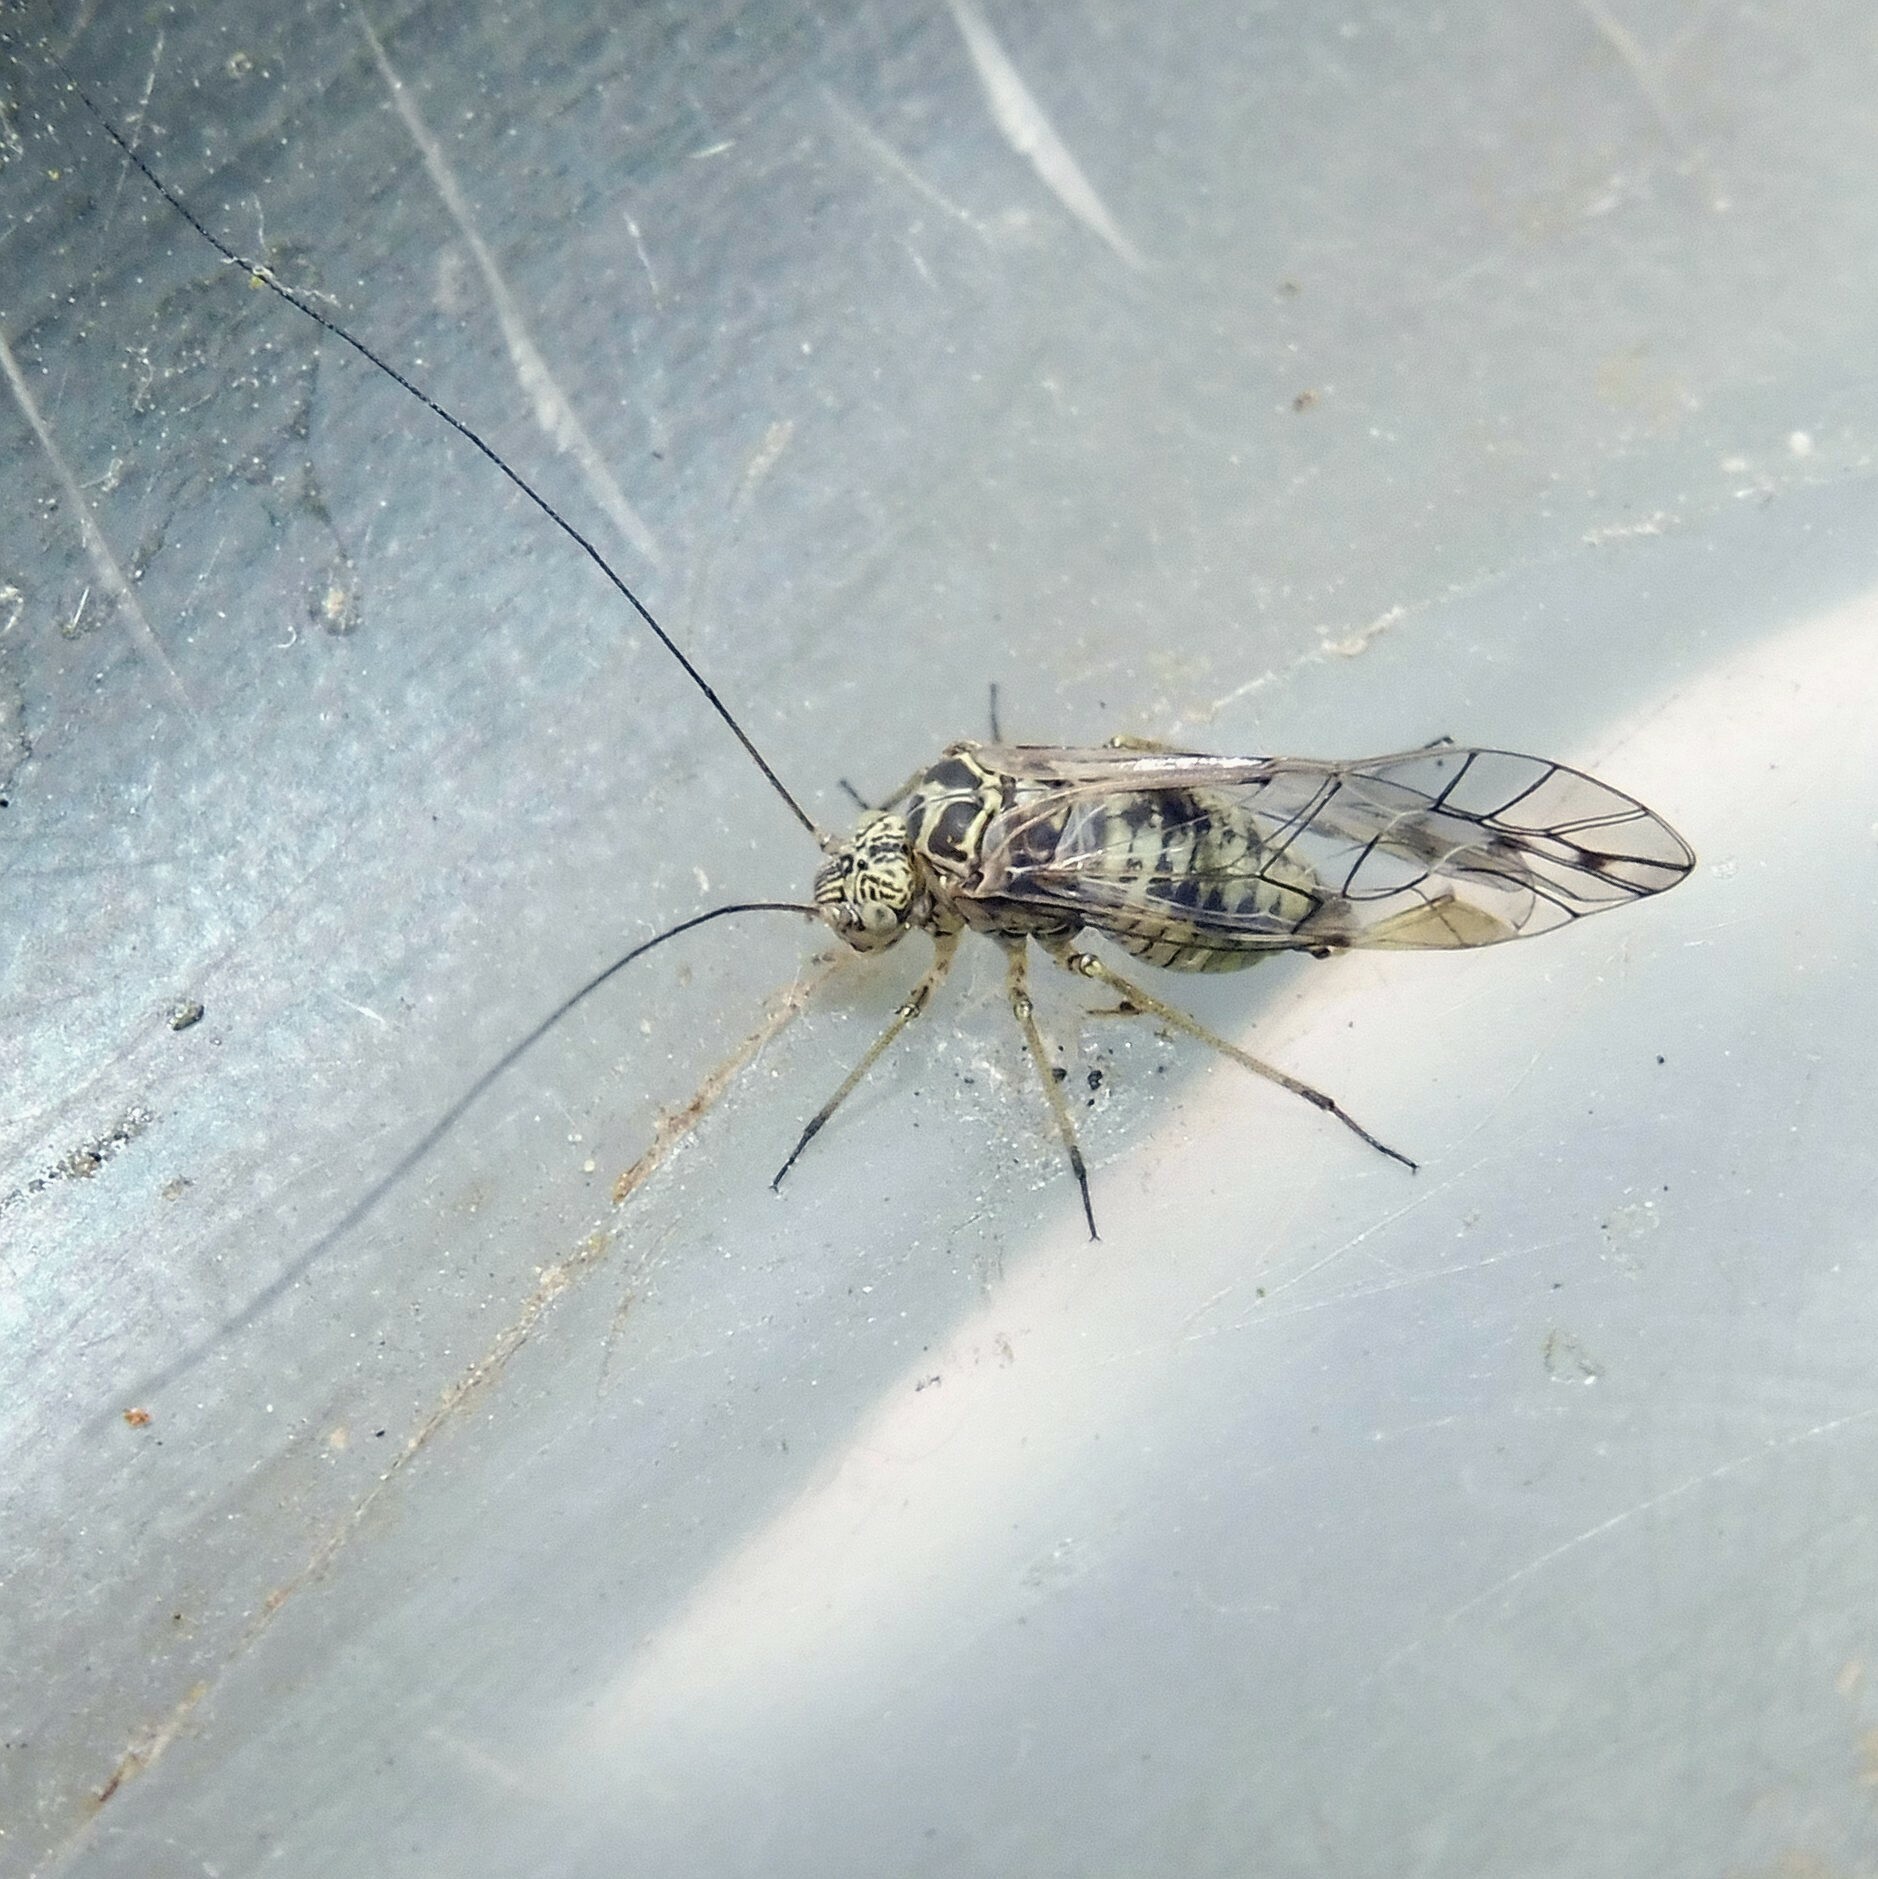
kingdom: Animalia
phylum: Arthropoda
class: Insecta
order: Psocodea
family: Psocidae
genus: Psococerastis
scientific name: Psococerastis gibbosa
